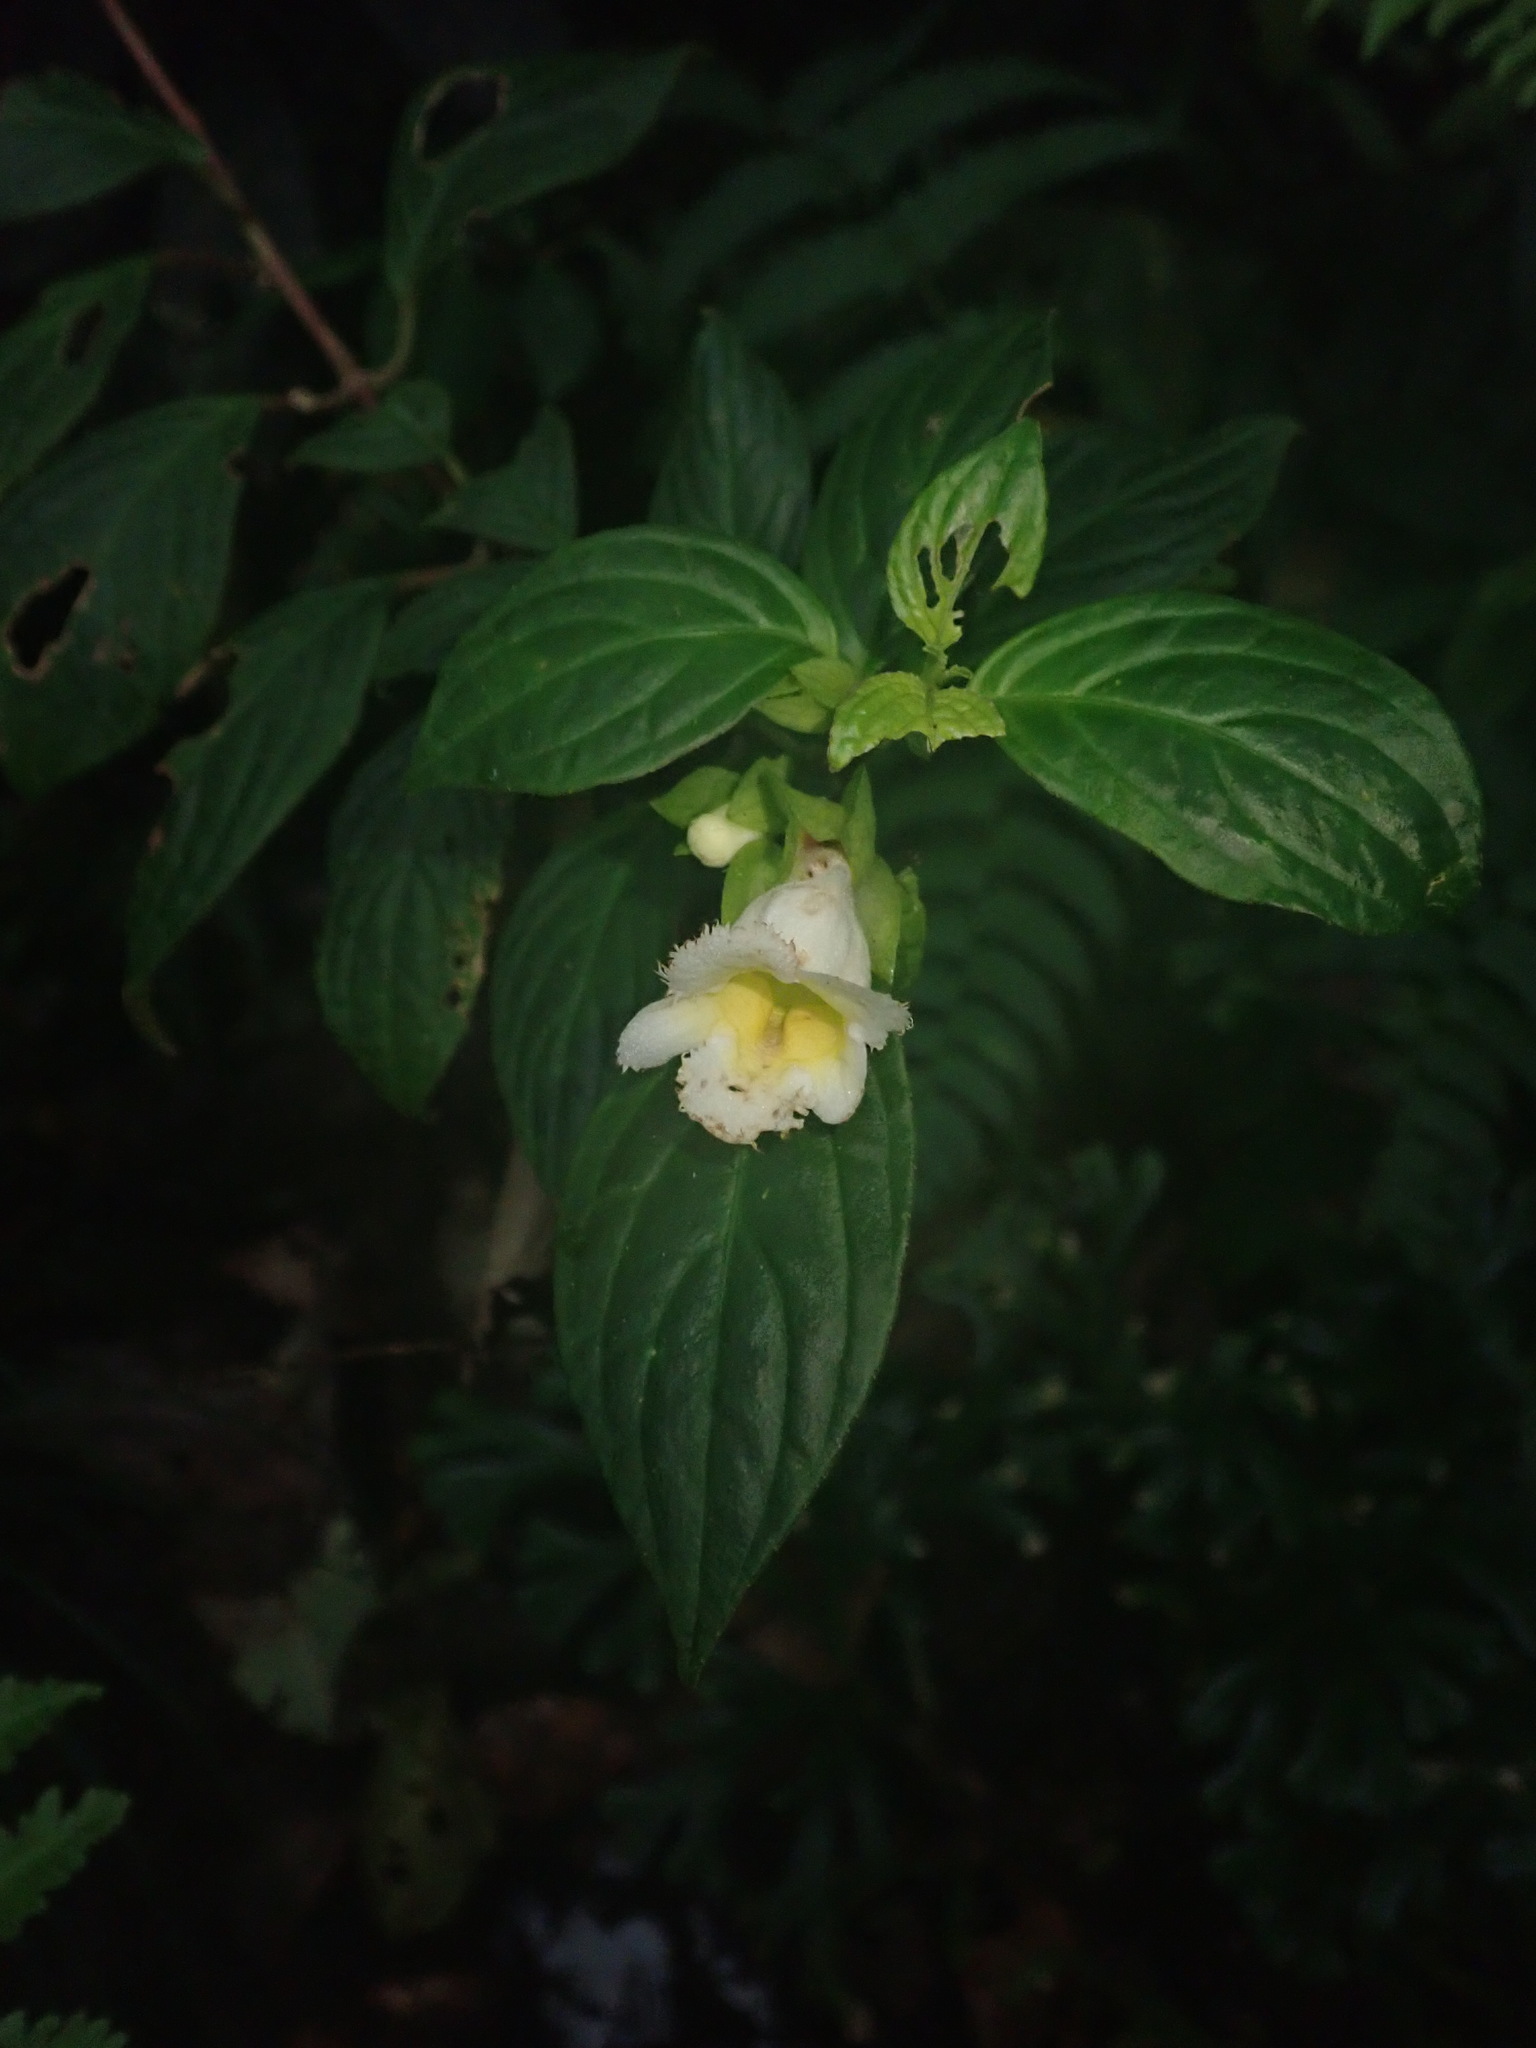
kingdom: Plantae
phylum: Tracheophyta
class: Magnoliopsida
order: Lamiales
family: Gesneriaceae
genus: Drymonia
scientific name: Drymonia warszewicziana
